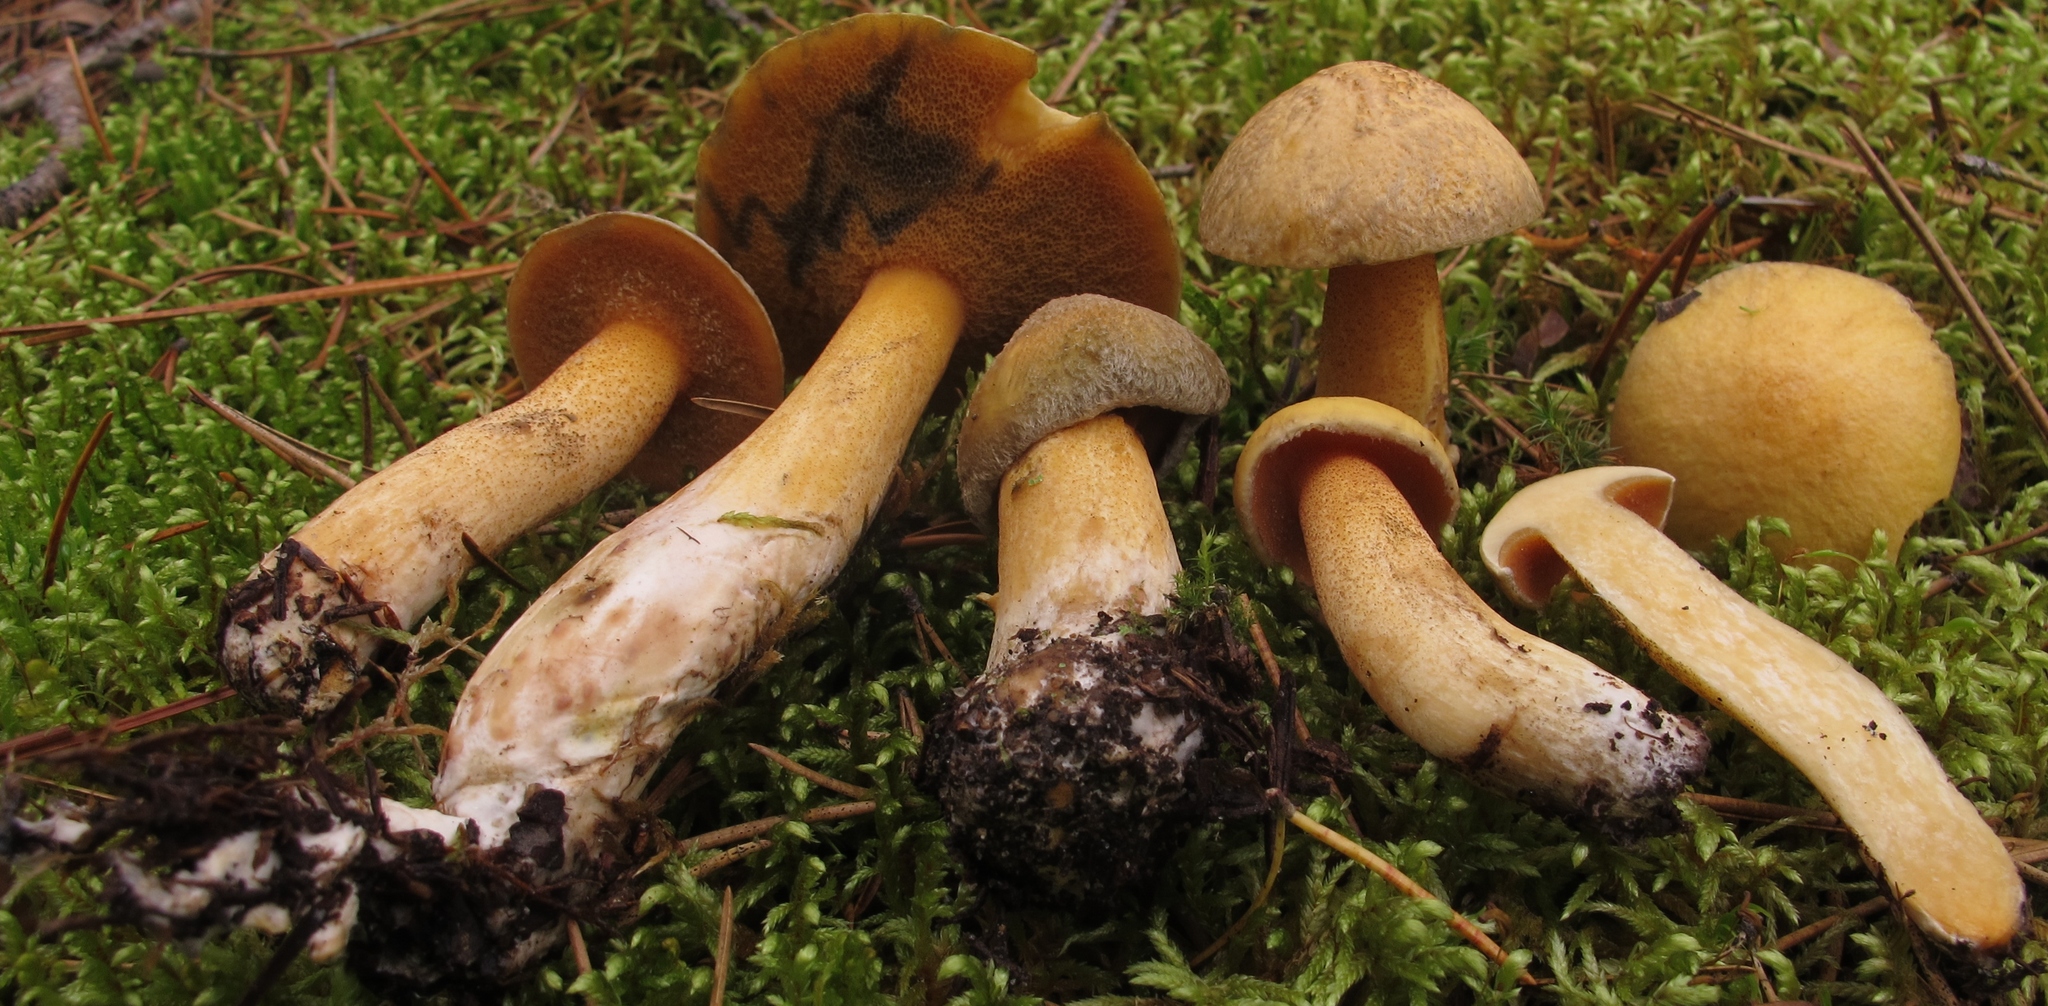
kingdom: Fungi
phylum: Basidiomycota
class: Agaricomycetes
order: Boletales
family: Suillaceae
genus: Suillus
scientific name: Suillus tomentosus
